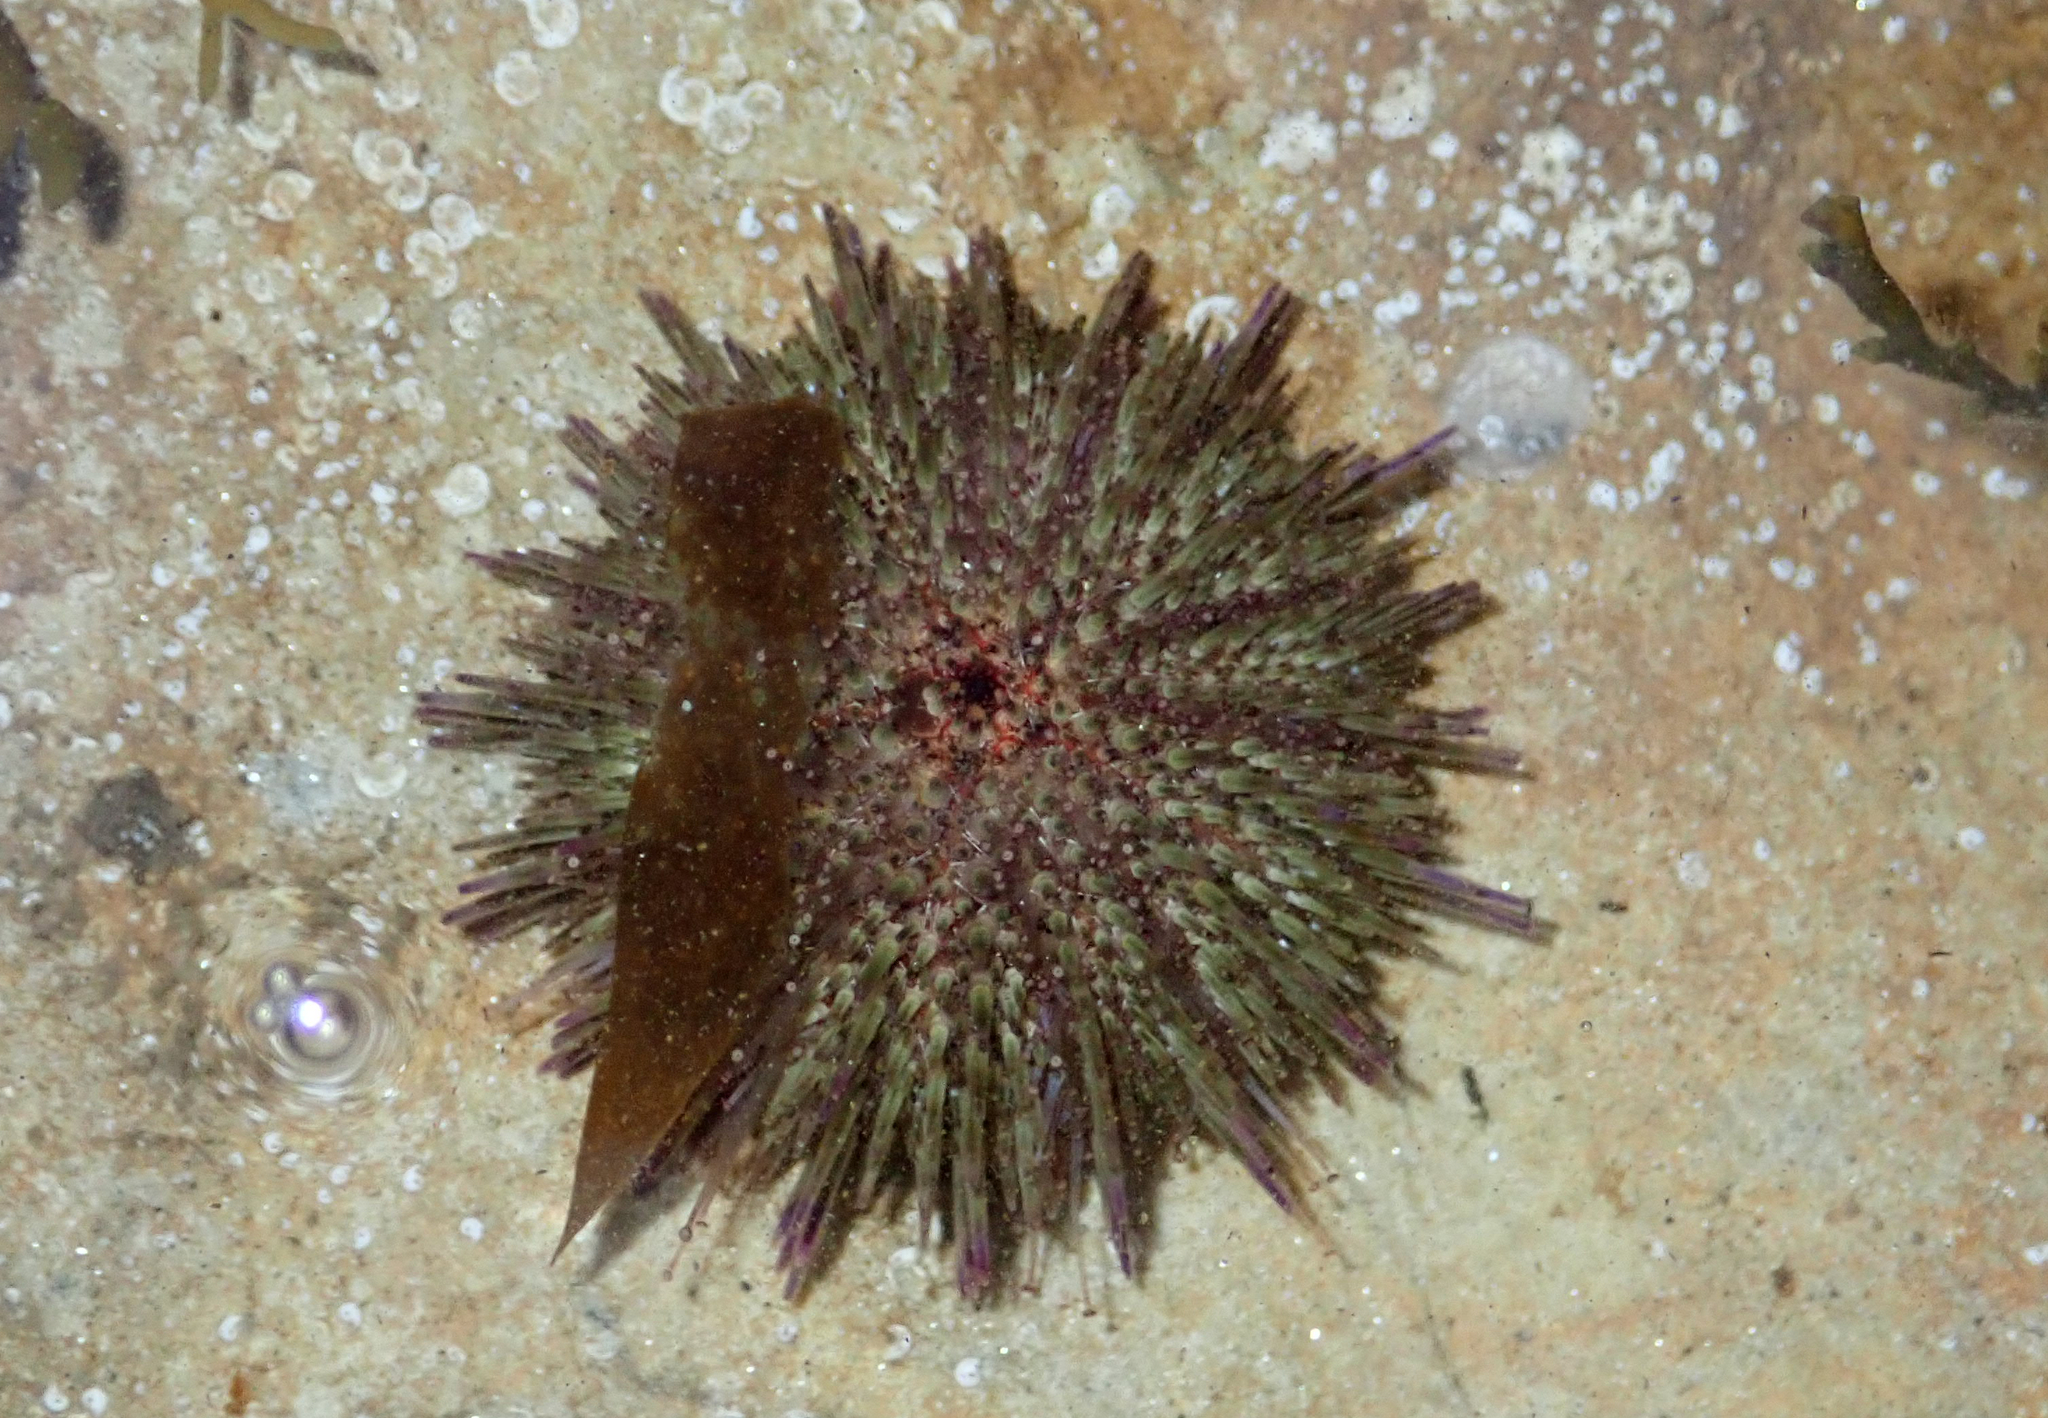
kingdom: Animalia
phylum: Echinodermata
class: Echinoidea
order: Camarodonta
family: Parechinidae
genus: Psammechinus
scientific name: Psammechinus miliaris
